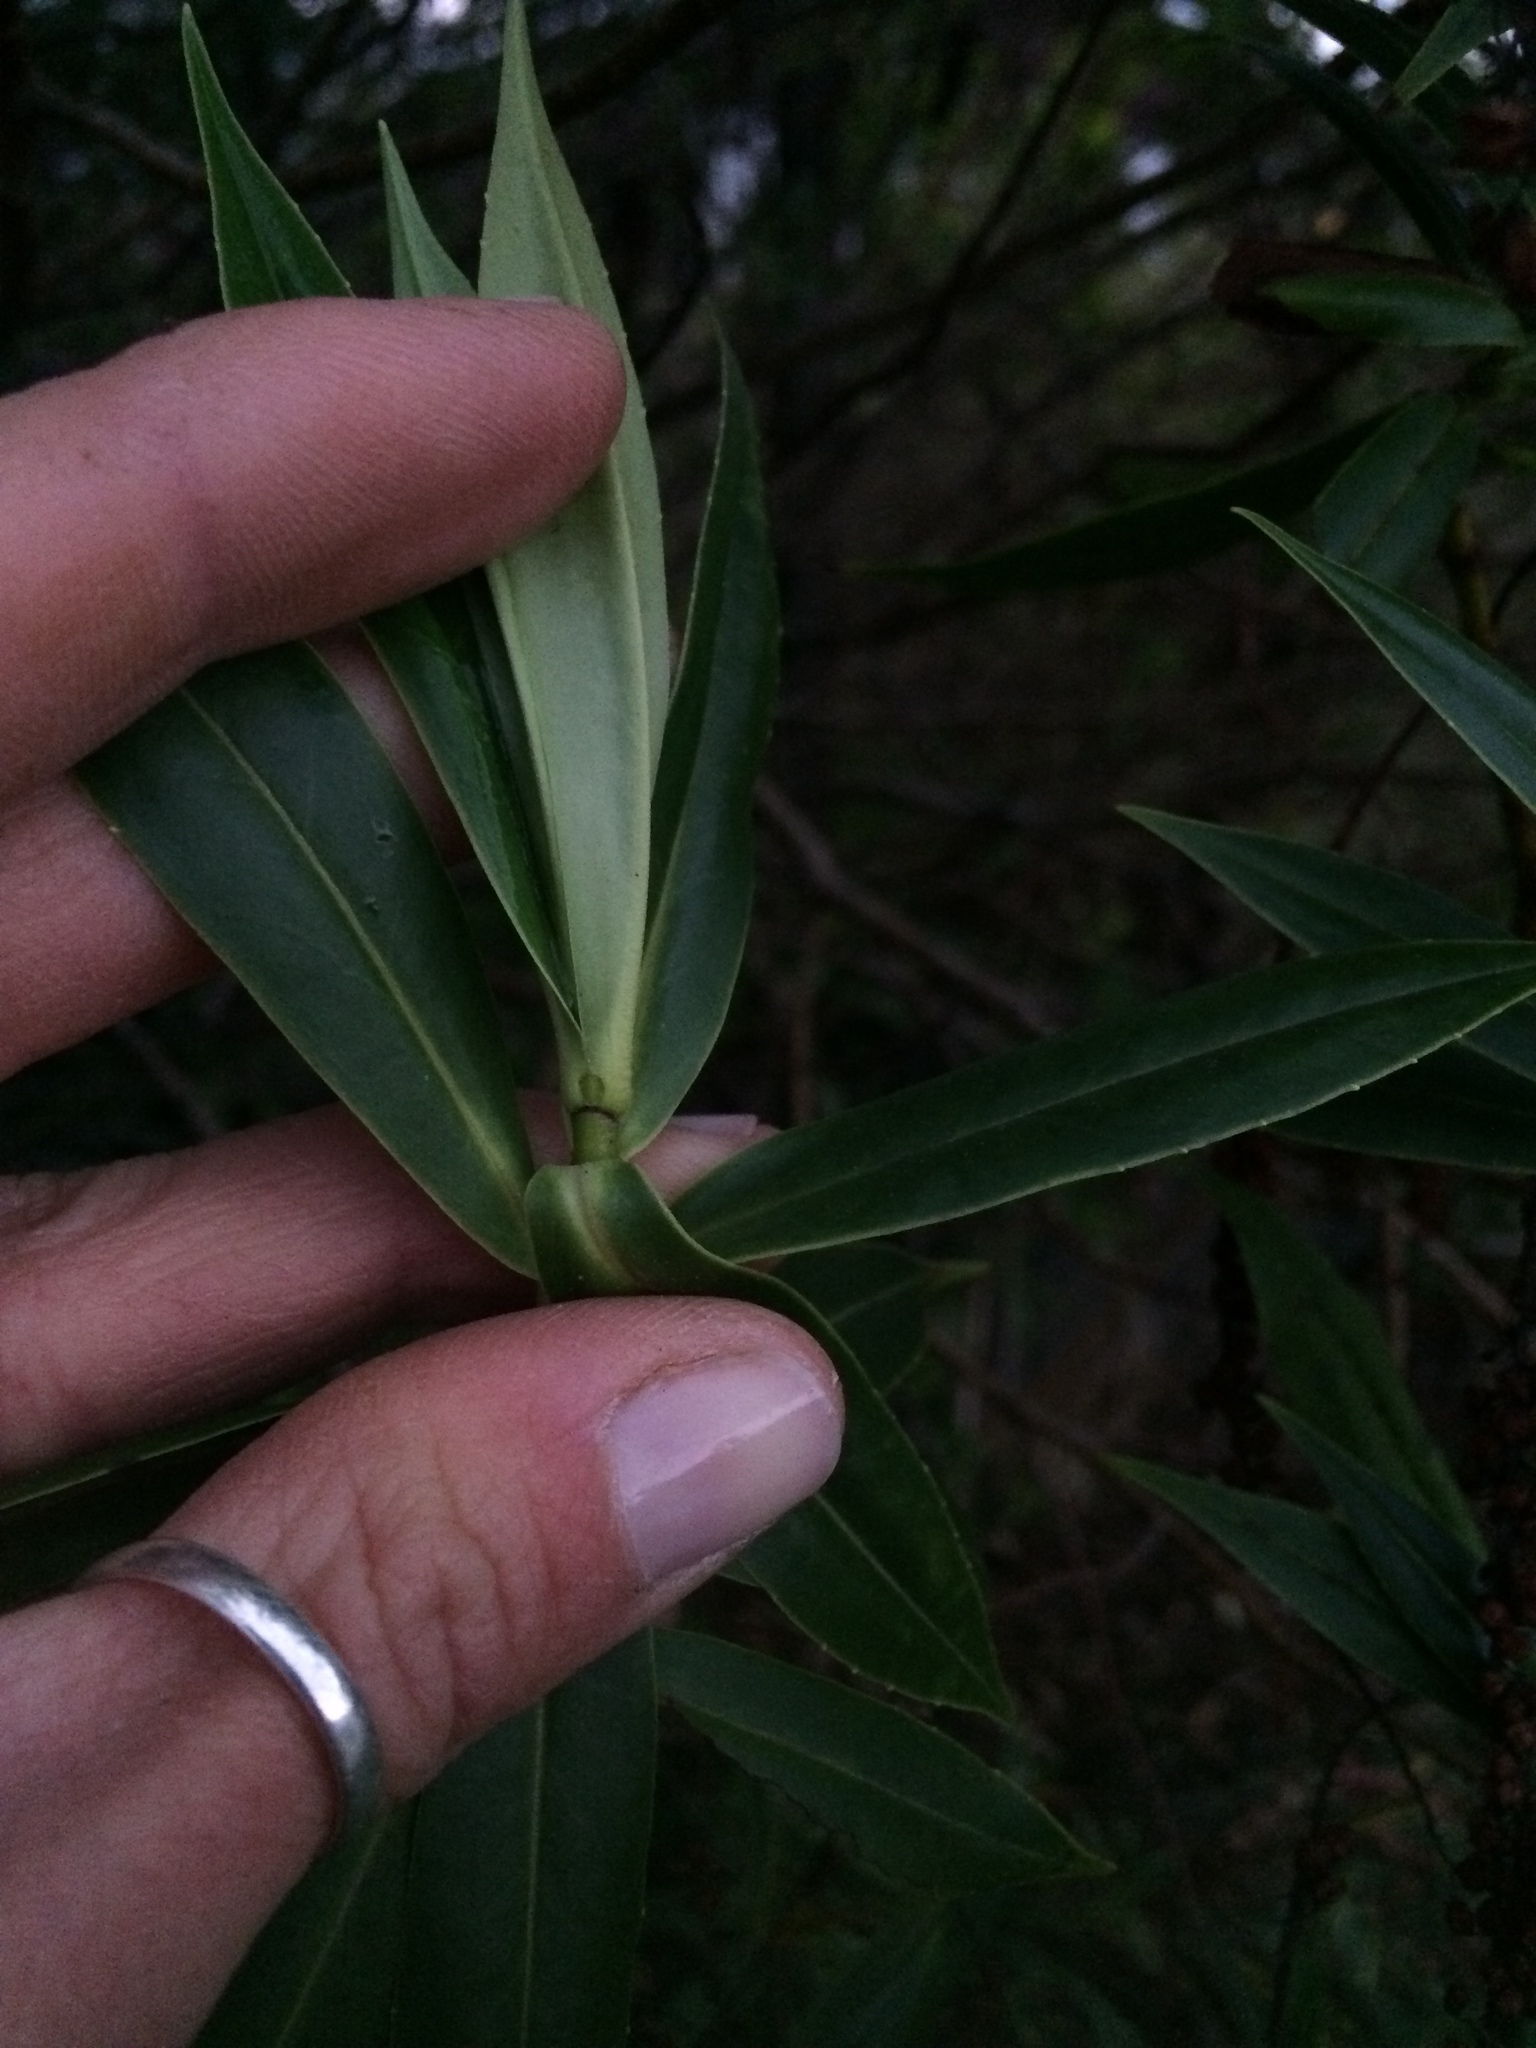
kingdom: Plantae
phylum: Tracheophyta
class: Magnoliopsida
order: Lamiales
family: Plantaginaceae
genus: Veronica
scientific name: Veronica salicifolia
